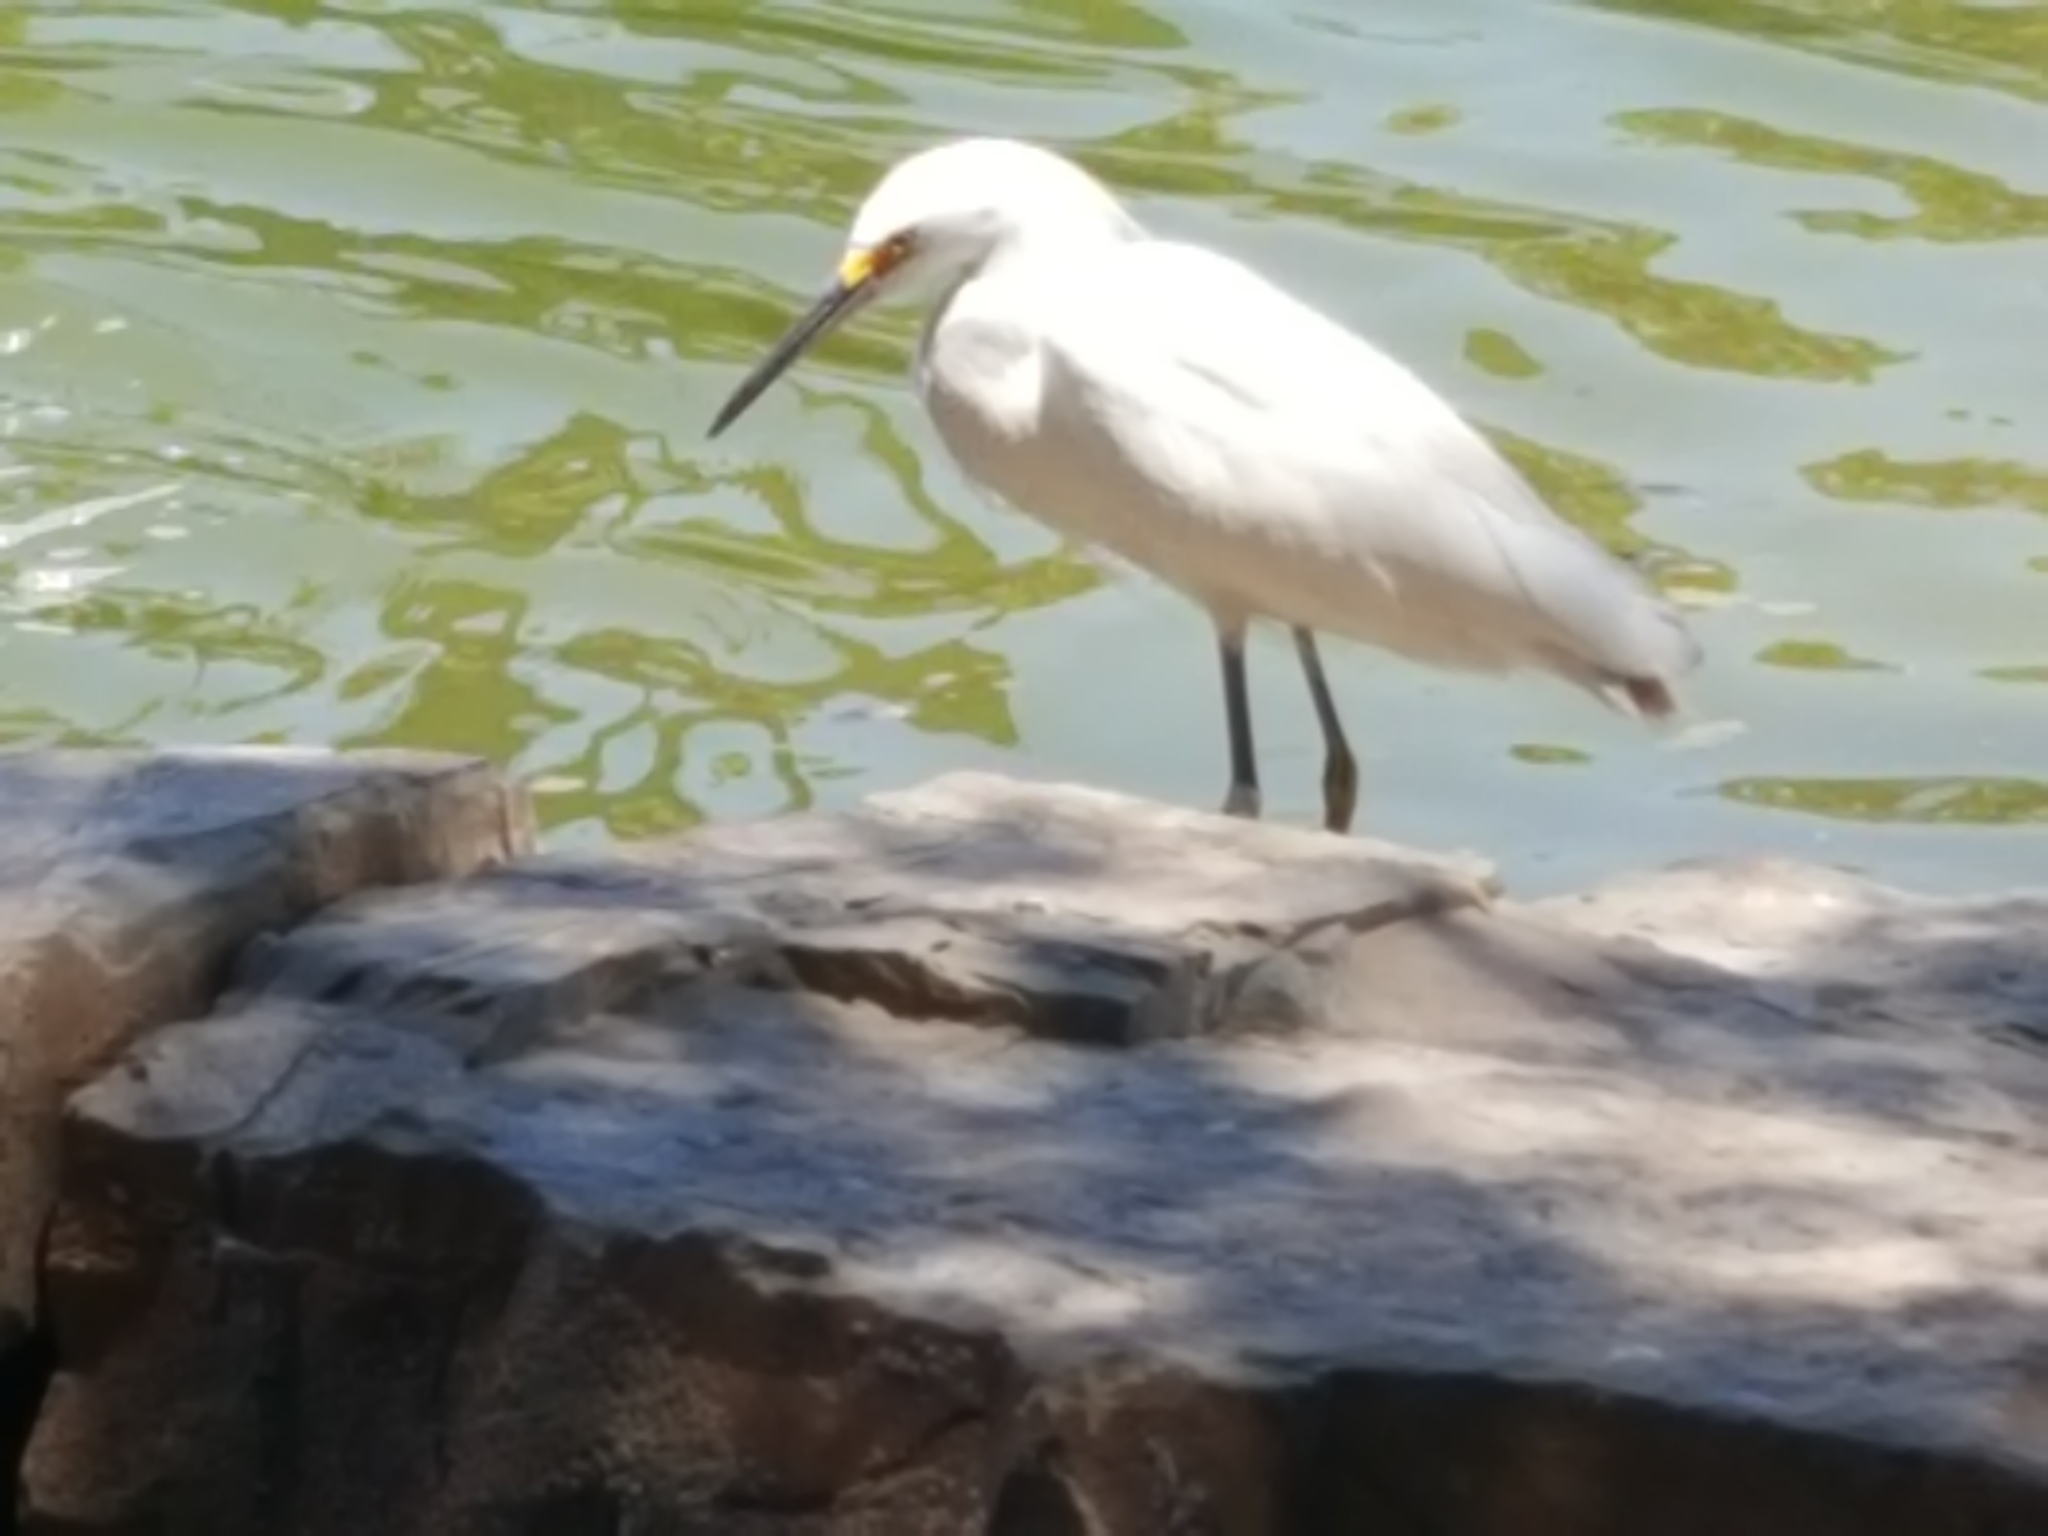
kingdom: Animalia
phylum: Chordata
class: Aves
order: Pelecaniformes
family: Ardeidae
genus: Egretta
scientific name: Egretta thula
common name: Snowy egret
